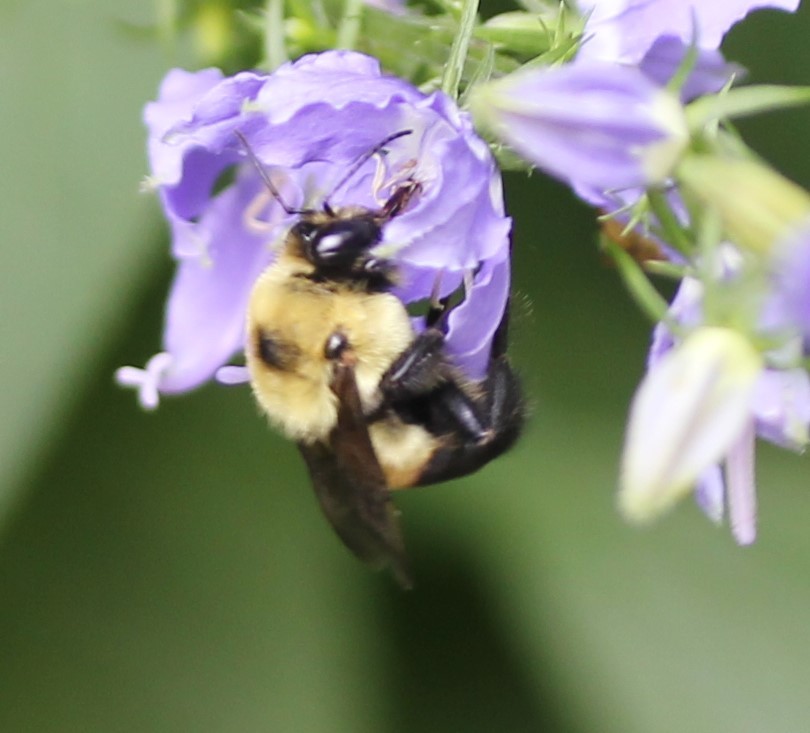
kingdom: Animalia
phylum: Arthropoda
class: Insecta
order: Hymenoptera
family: Apidae
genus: Bombus
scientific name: Bombus griseocollis
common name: Brown-belted bumble bee
